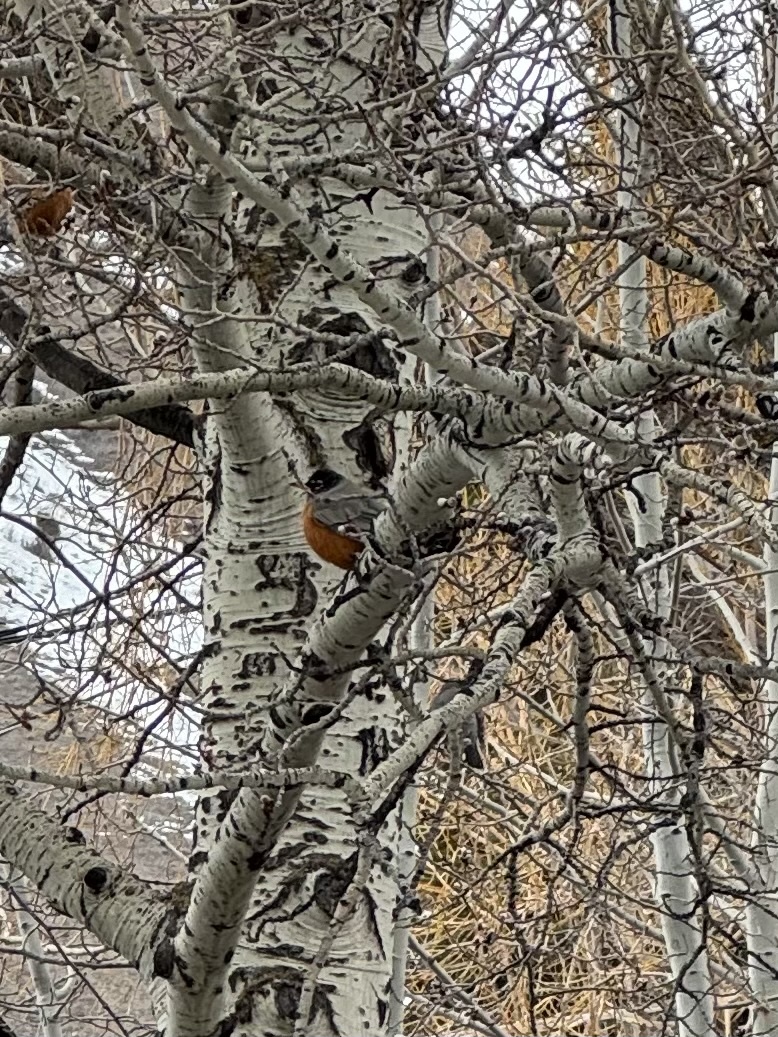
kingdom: Animalia
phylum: Chordata
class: Aves
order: Passeriformes
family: Turdidae
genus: Turdus
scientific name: Turdus migratorius
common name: American robin
